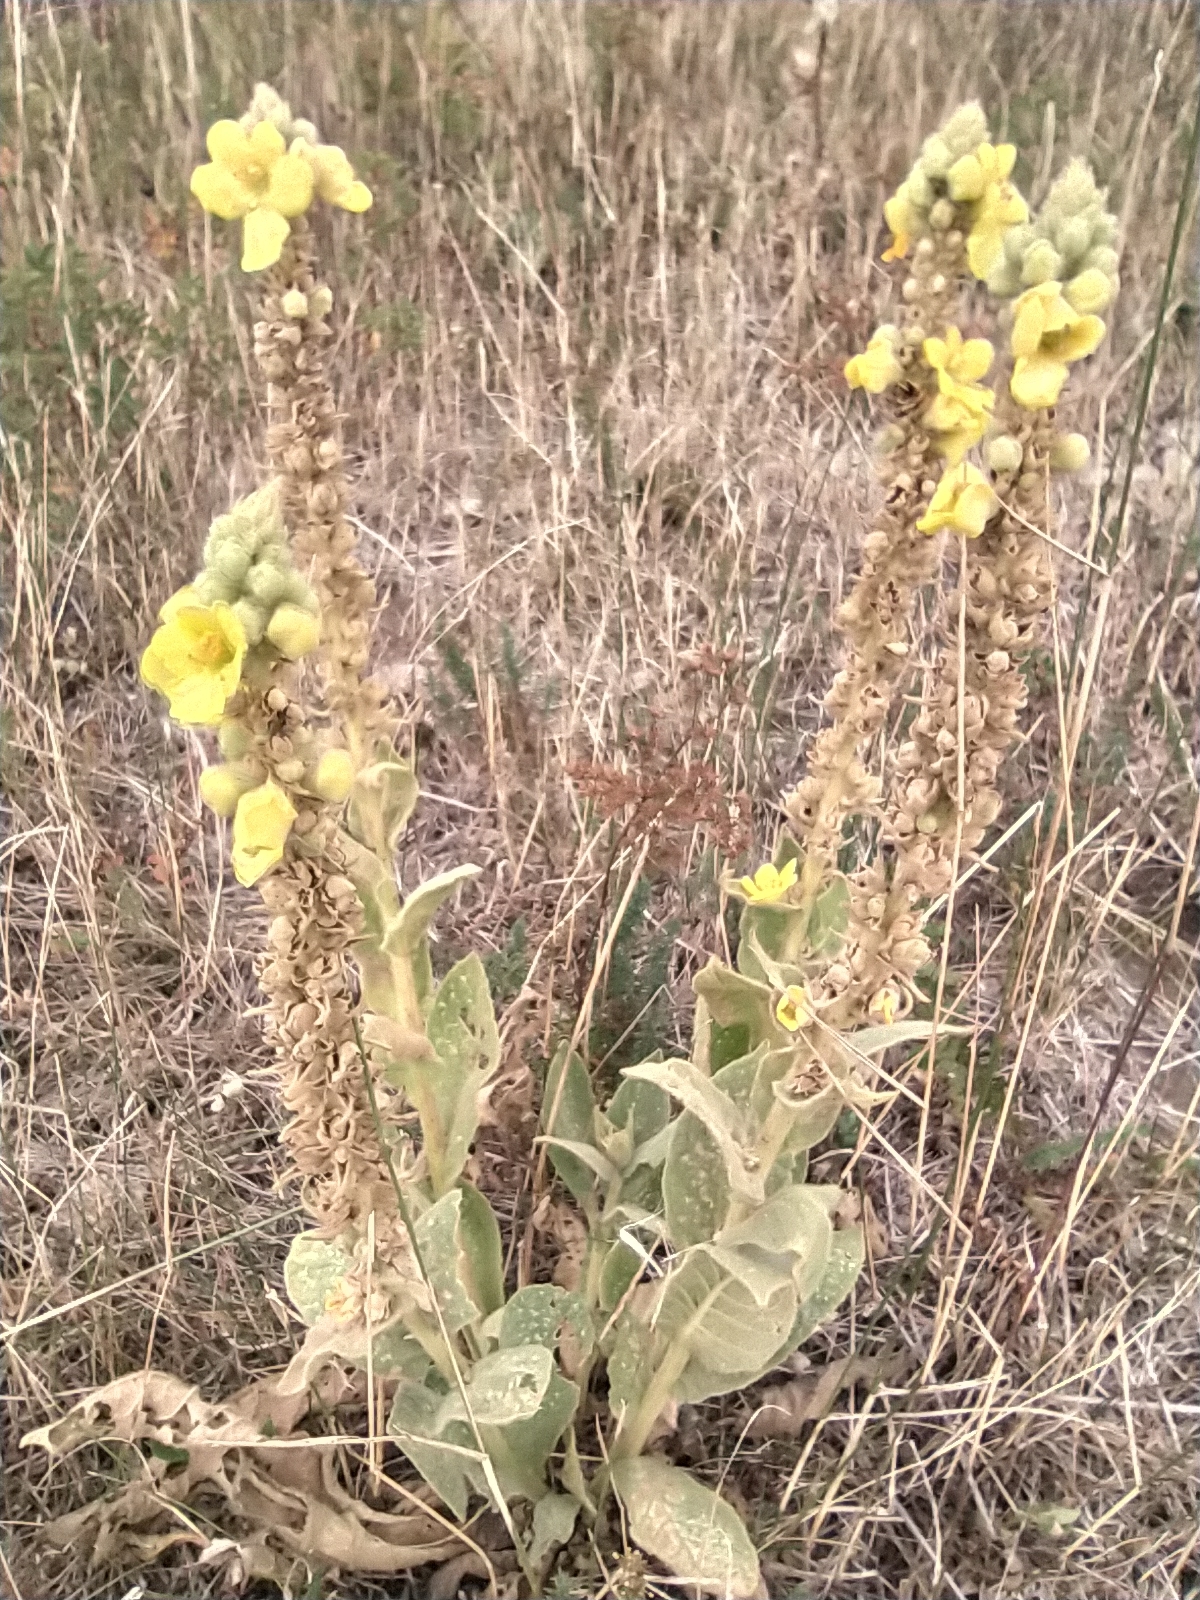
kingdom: Plantae
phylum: Tracheophyta
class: Magnoliopsida
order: Lamiales
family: Scrophulariaceae
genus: Verbascum
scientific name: Verbascum phlomoides
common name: Orange mullein
